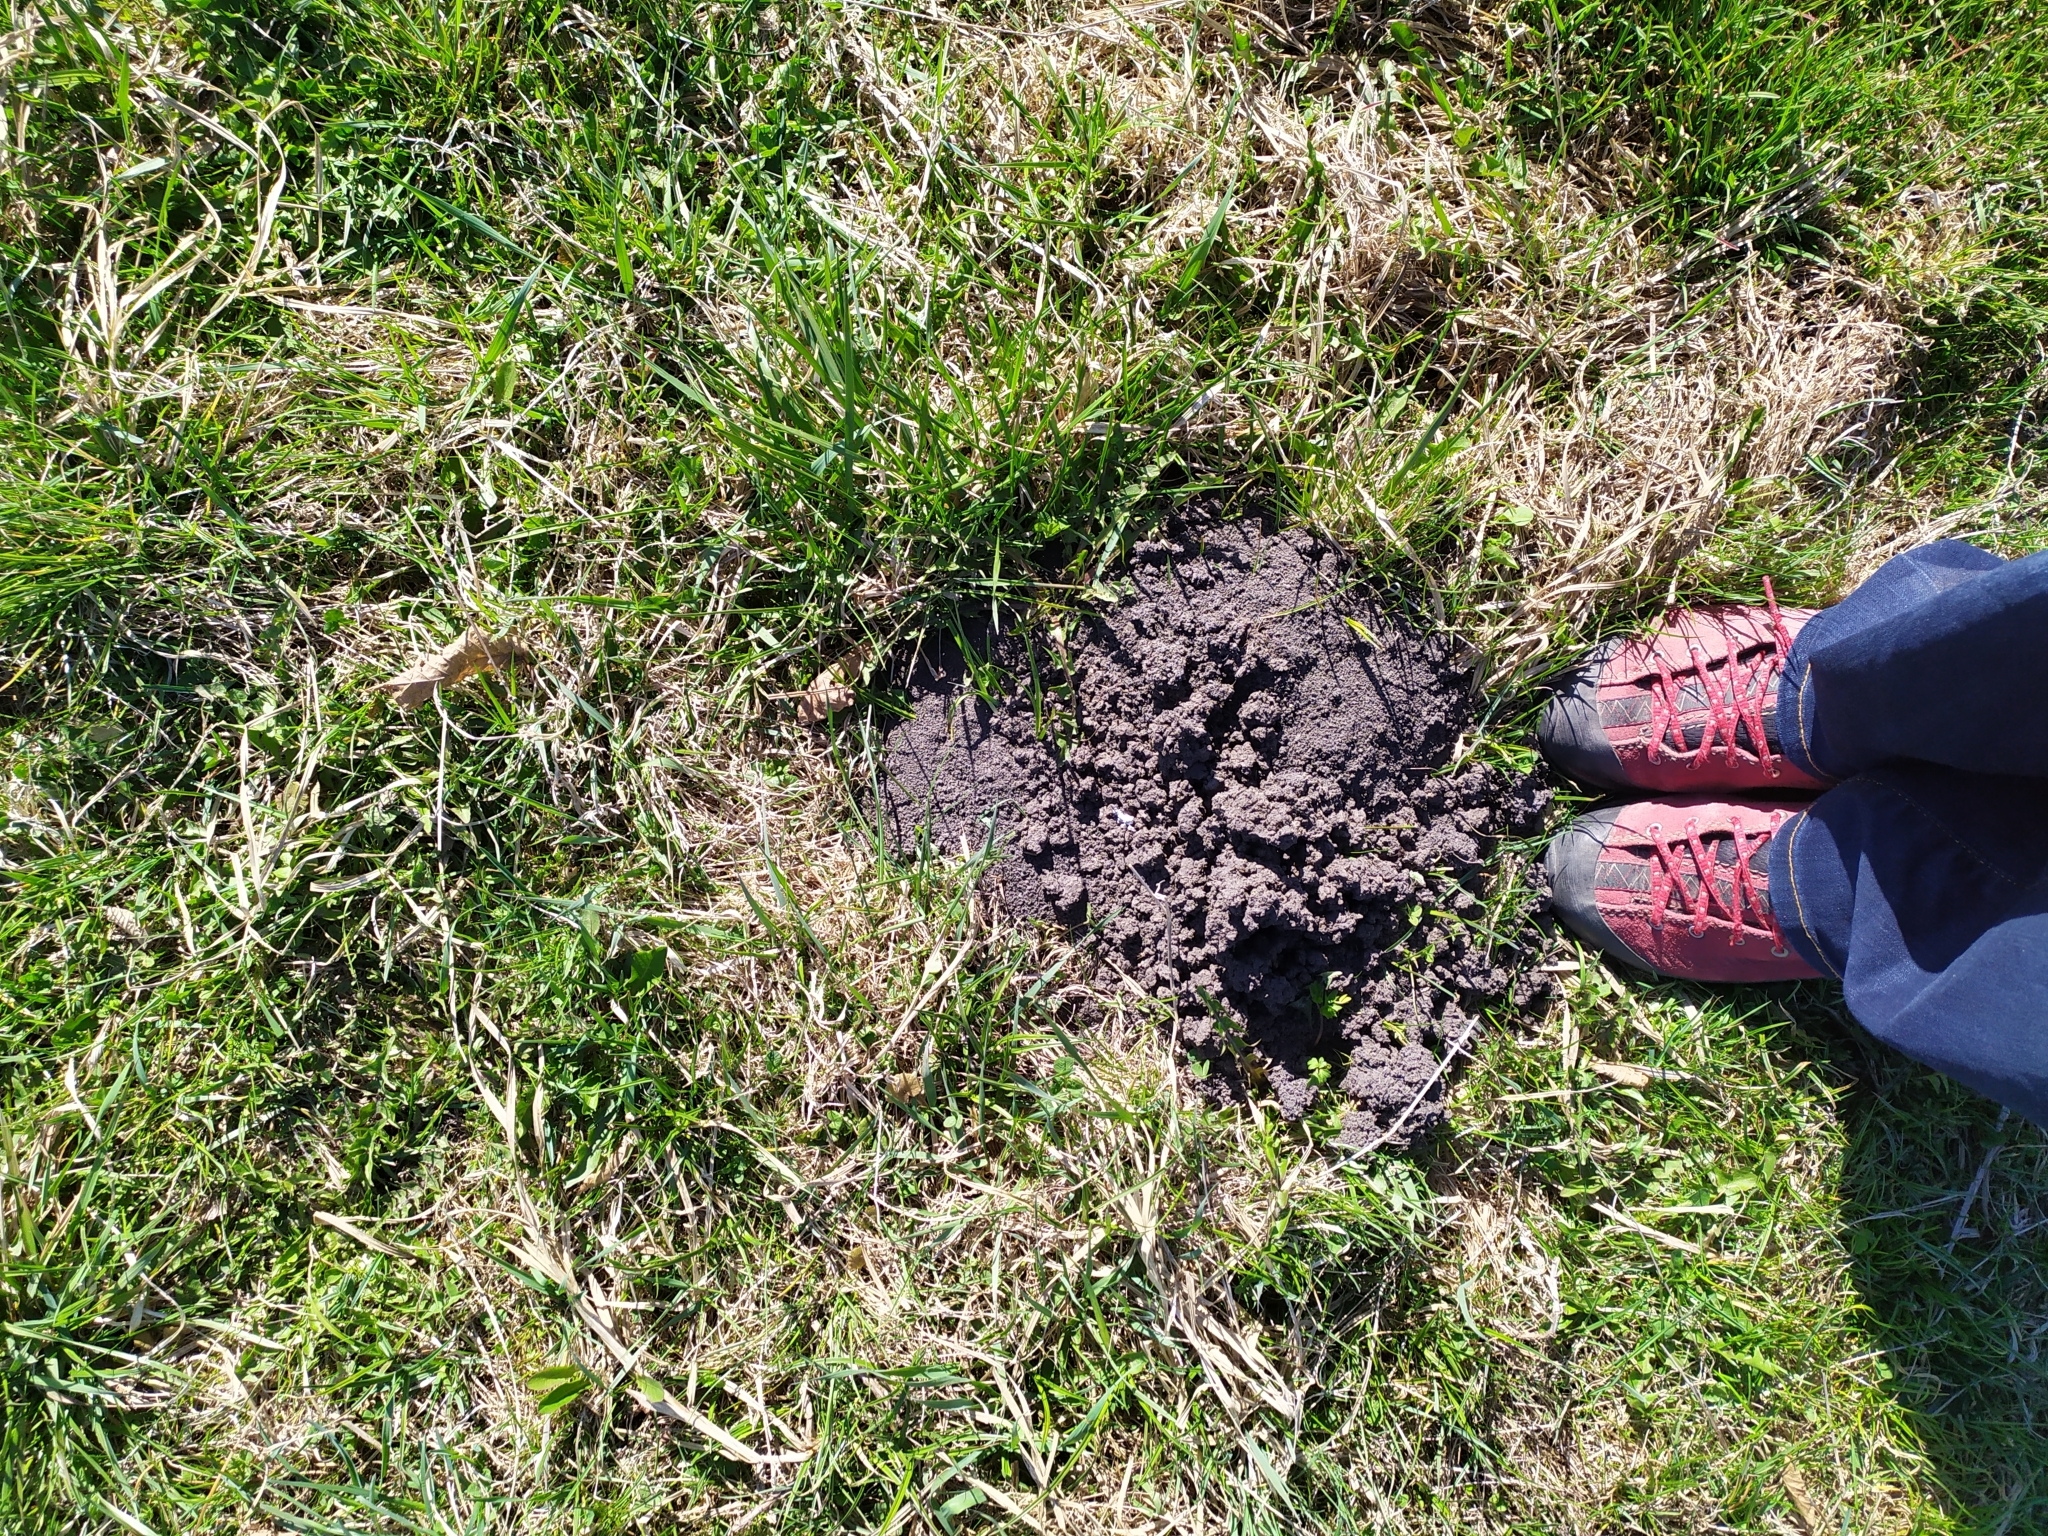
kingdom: Animalia
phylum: Chordata
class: Mammalia
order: Soricomorpha
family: Talpidae
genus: Talpa
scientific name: Talpa europaea
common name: European mole
